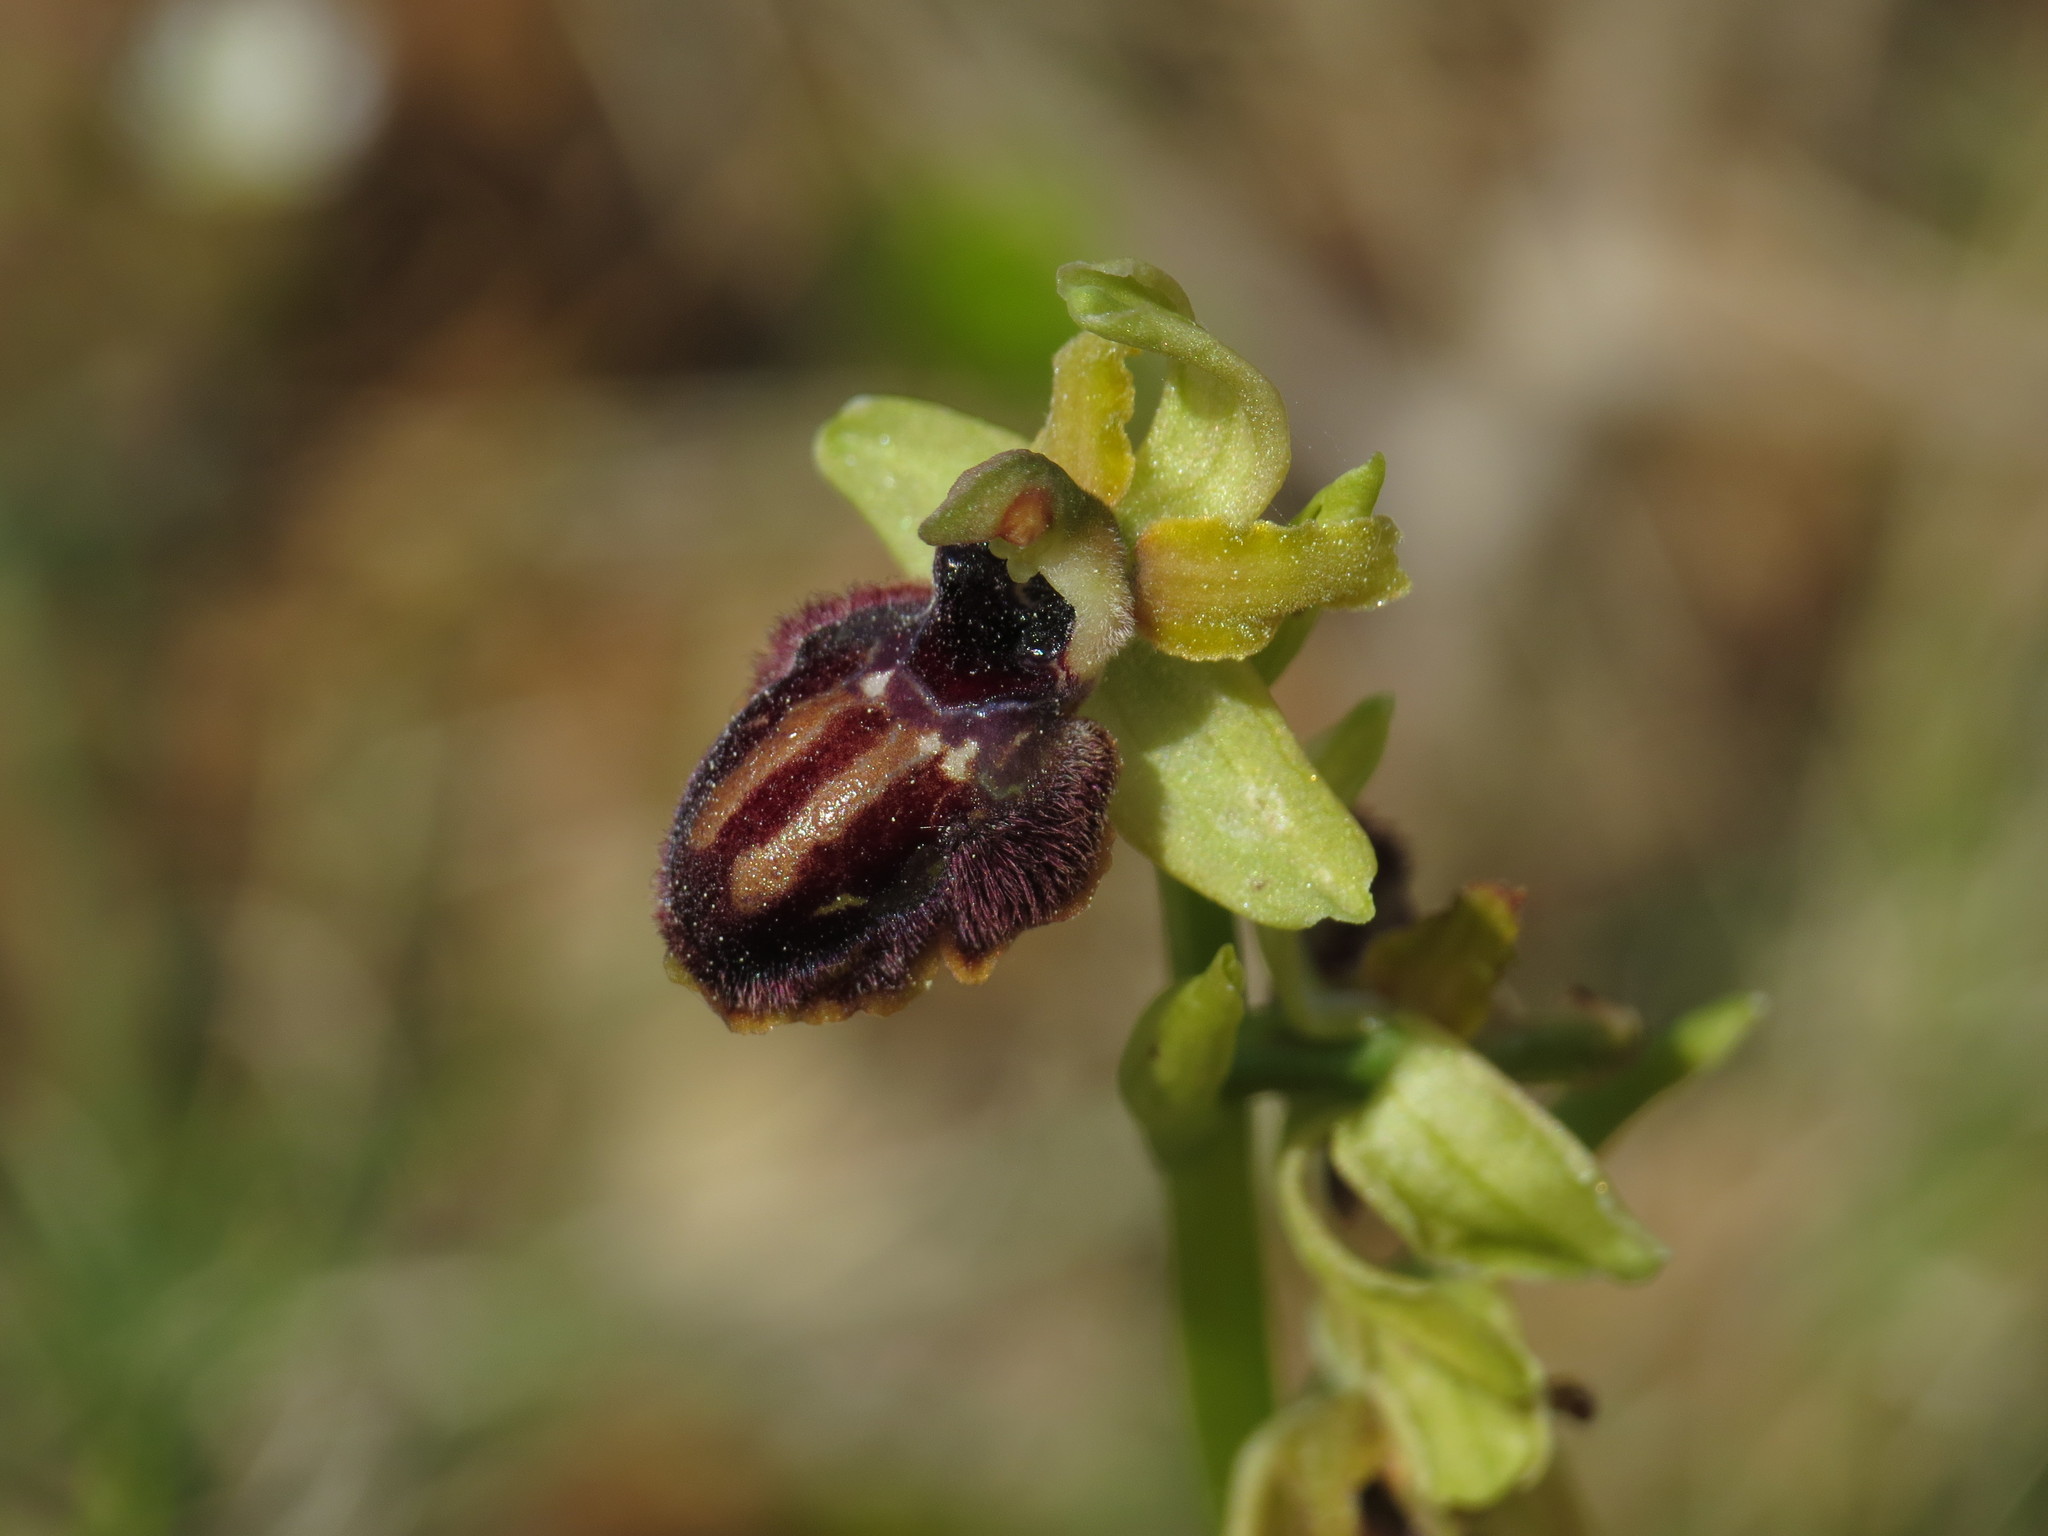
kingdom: Plantae
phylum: Tracheophyta
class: Liliopsida
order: Asparagales
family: Orchidaceae
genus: Ophrys
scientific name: Ophrys sphegodes
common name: Early spider-orchid
